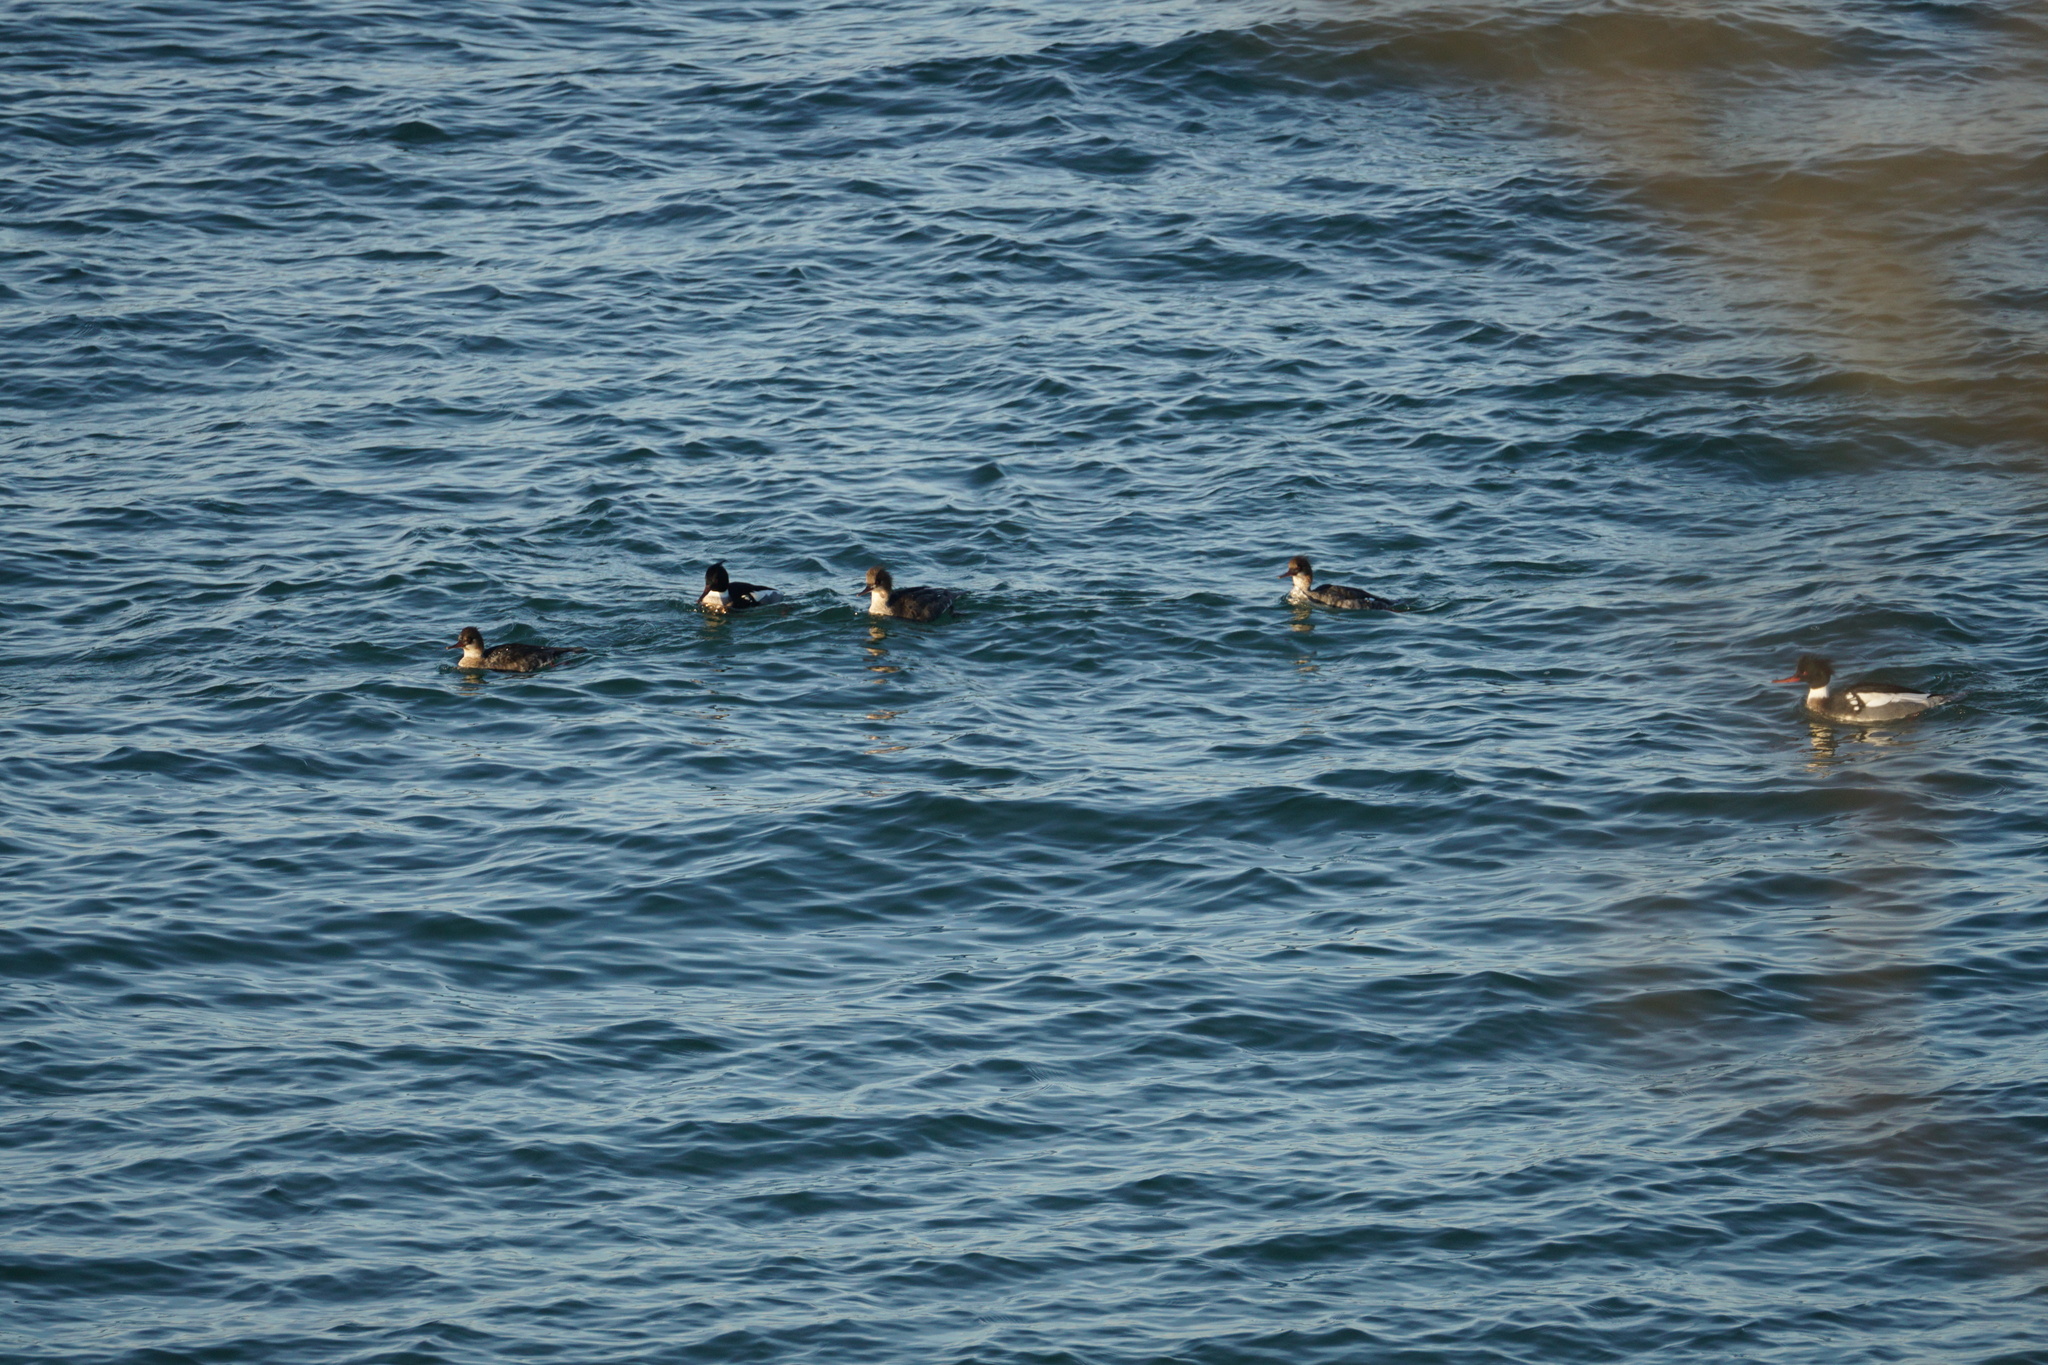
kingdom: Animalia
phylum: Chordata
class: Aves
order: Anseriformes
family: Anatidae
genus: Mergus
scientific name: Mergus serrator
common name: Red-breasted merganser
